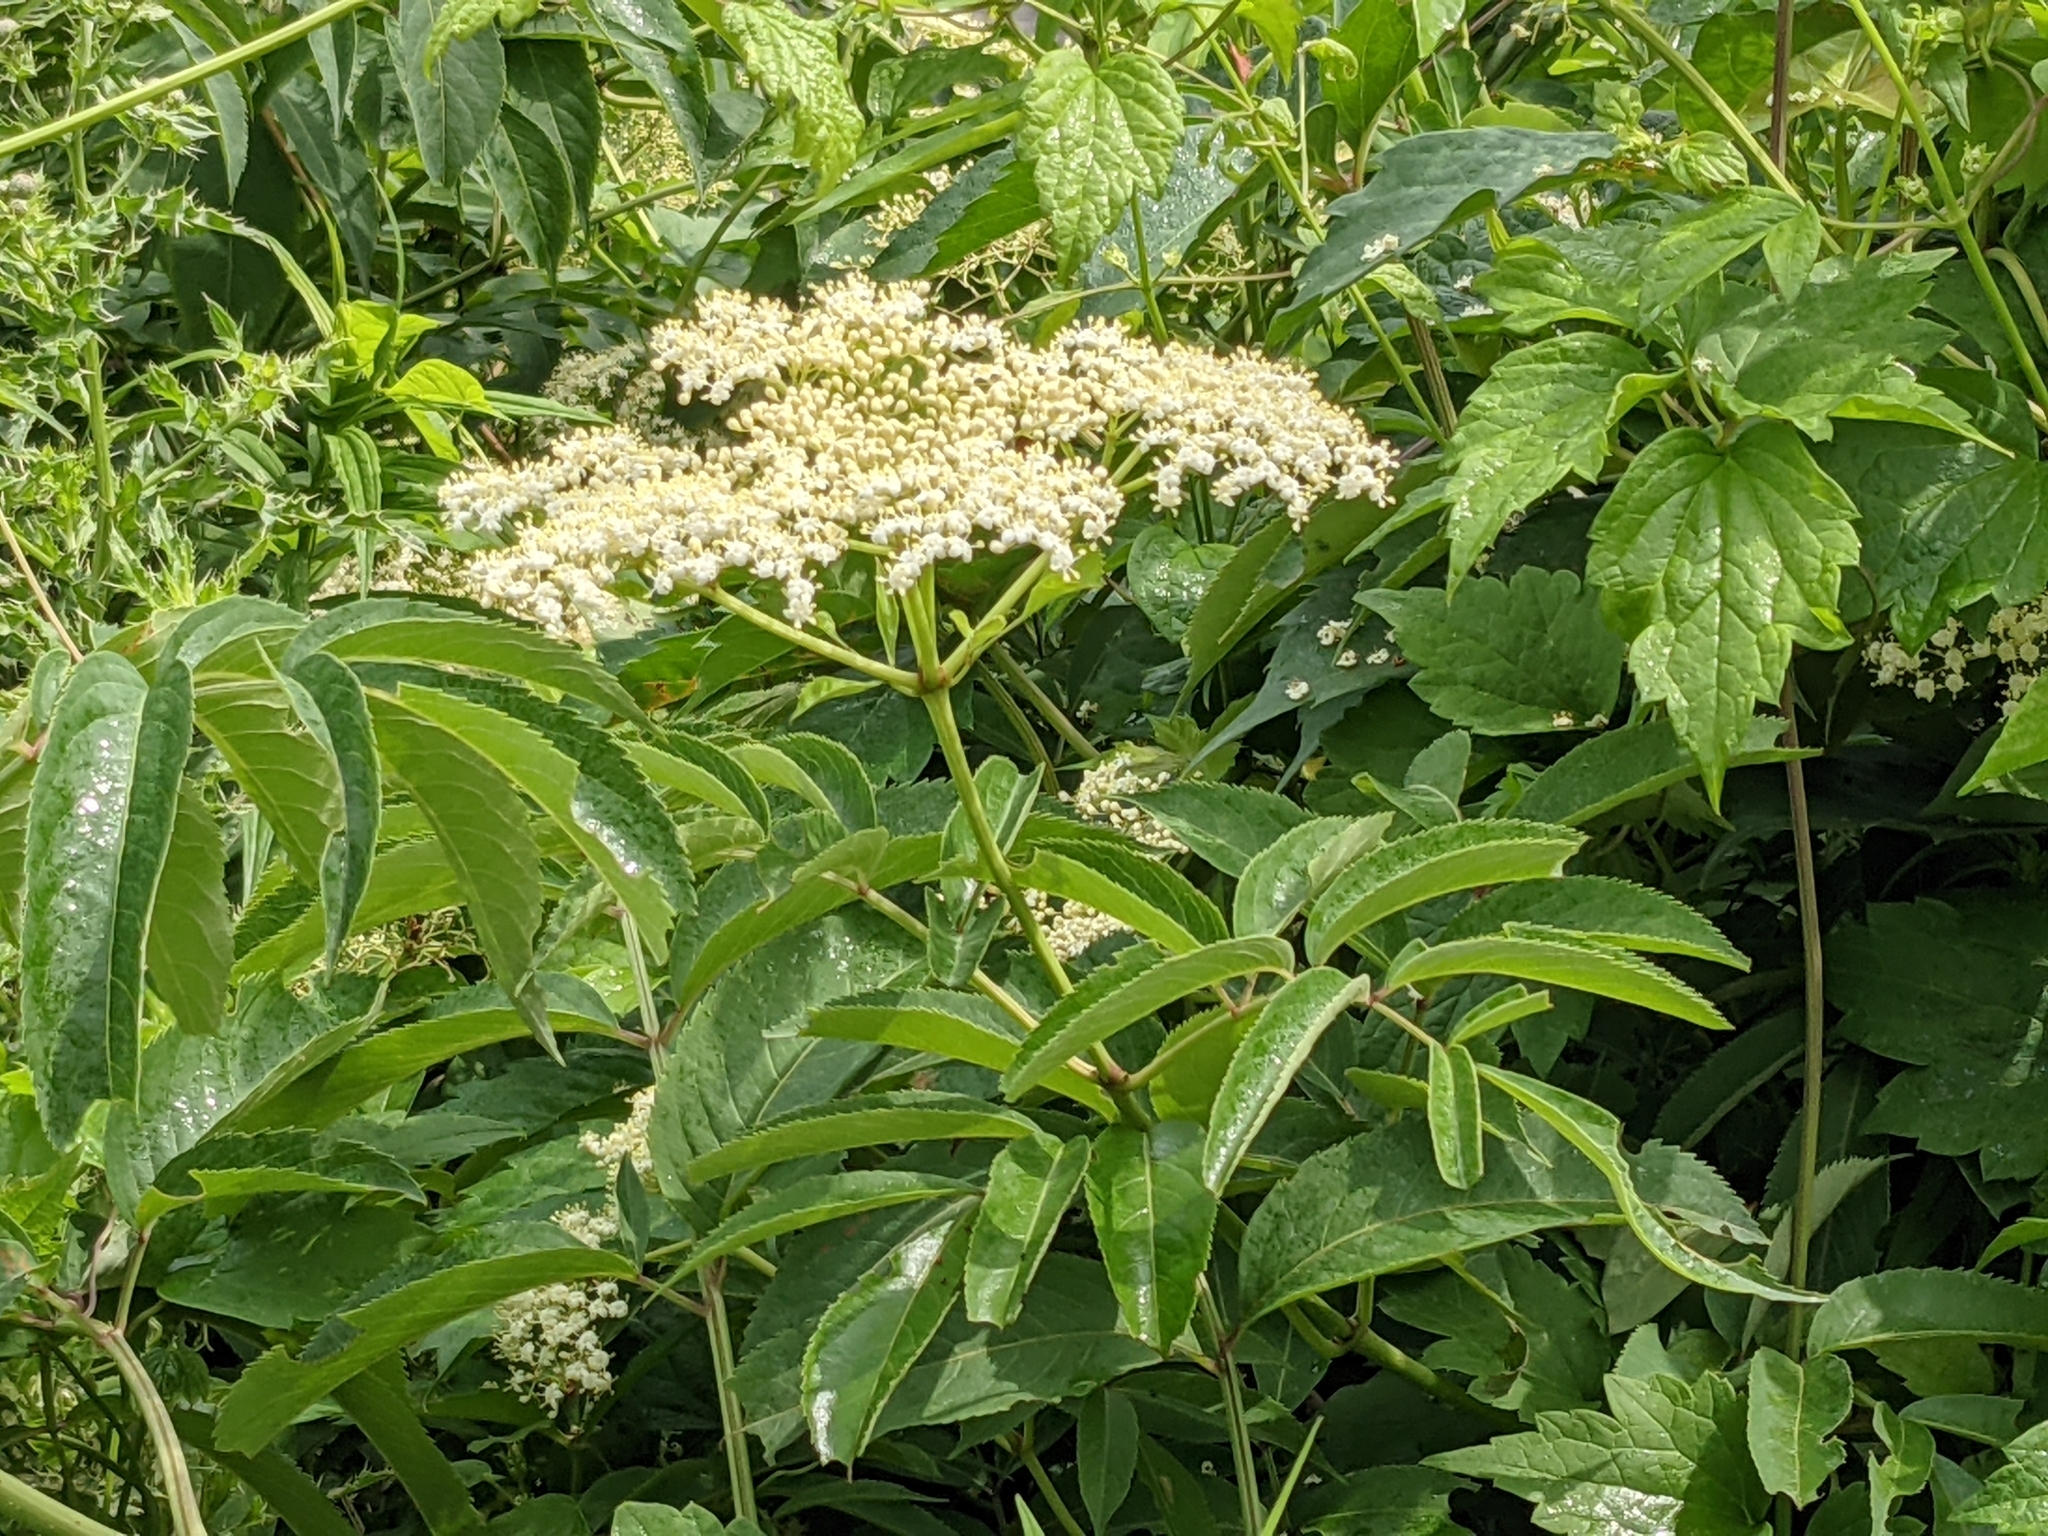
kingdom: Plantae
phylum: Tracheophyta
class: Magnoliopsida
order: Dipsacales
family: Viburnaceae
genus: Sambucus
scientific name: Sambucus canadensis
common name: American elder
